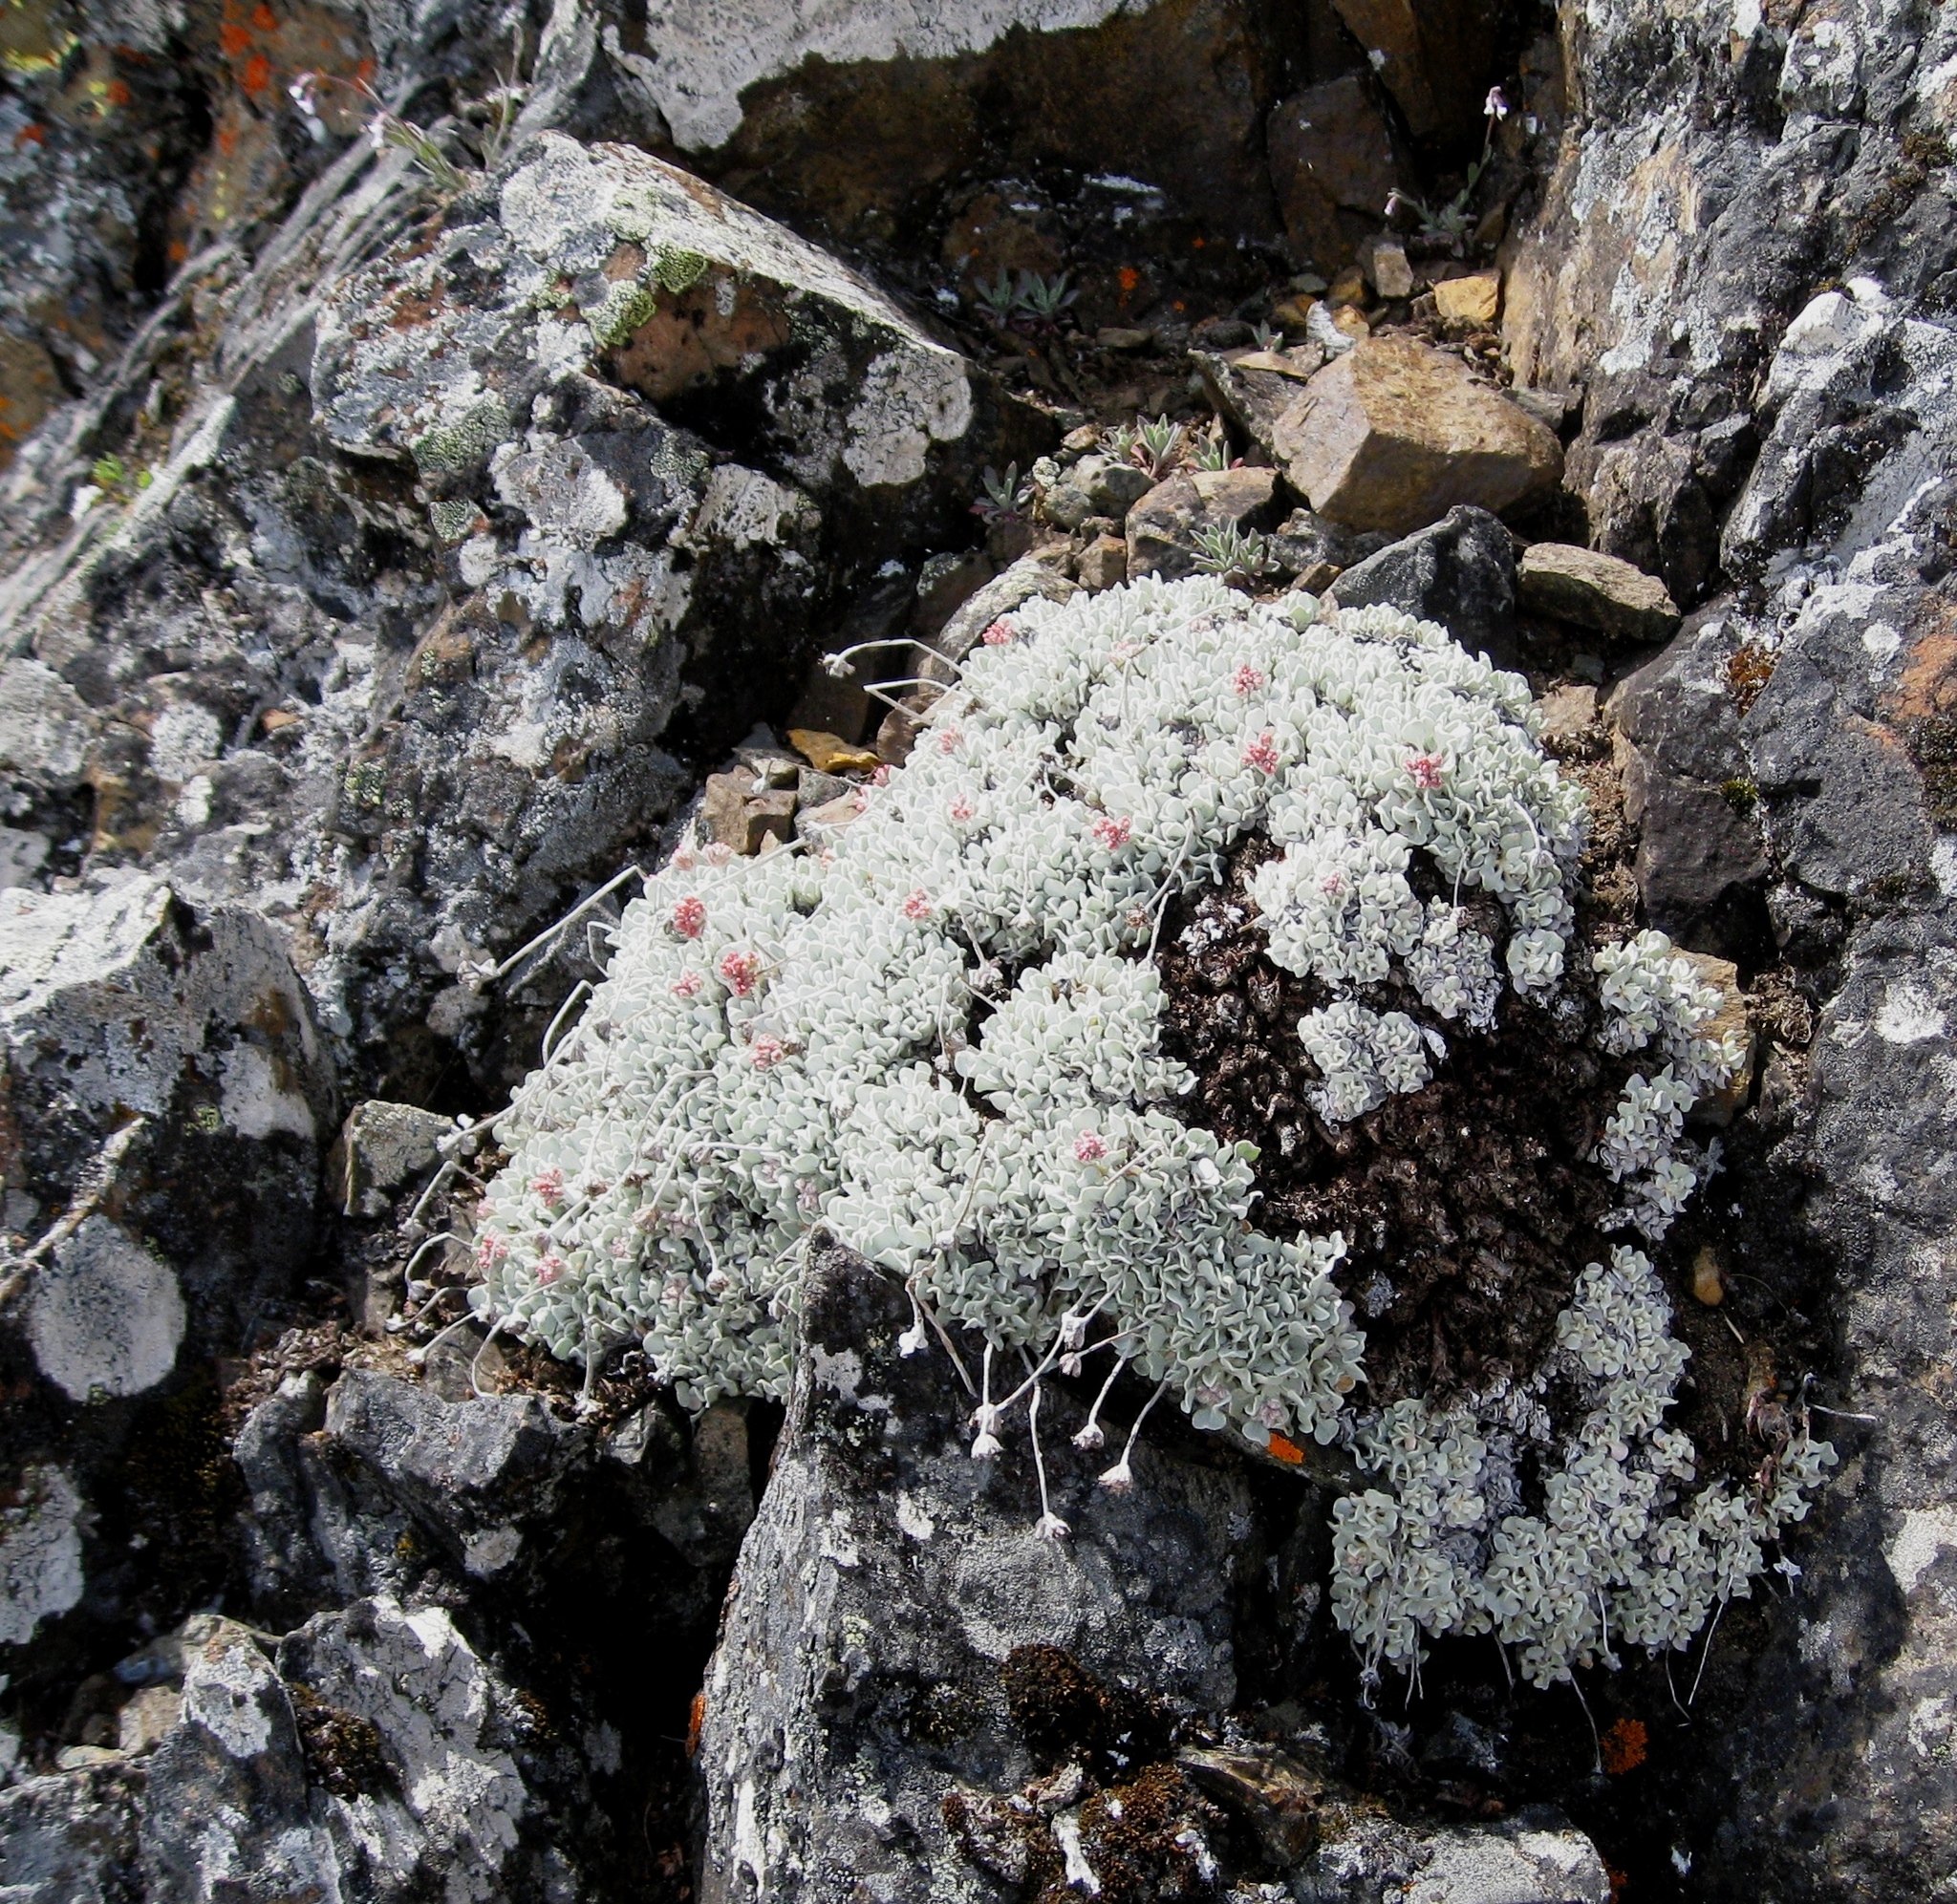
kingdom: Plantae
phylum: Tracheophyta
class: Magnoliopsida
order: Caryophyllales
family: Polygonaceae
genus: Eriogonum
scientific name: Eriogonum ovalifolium
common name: Cushion buckwheat
